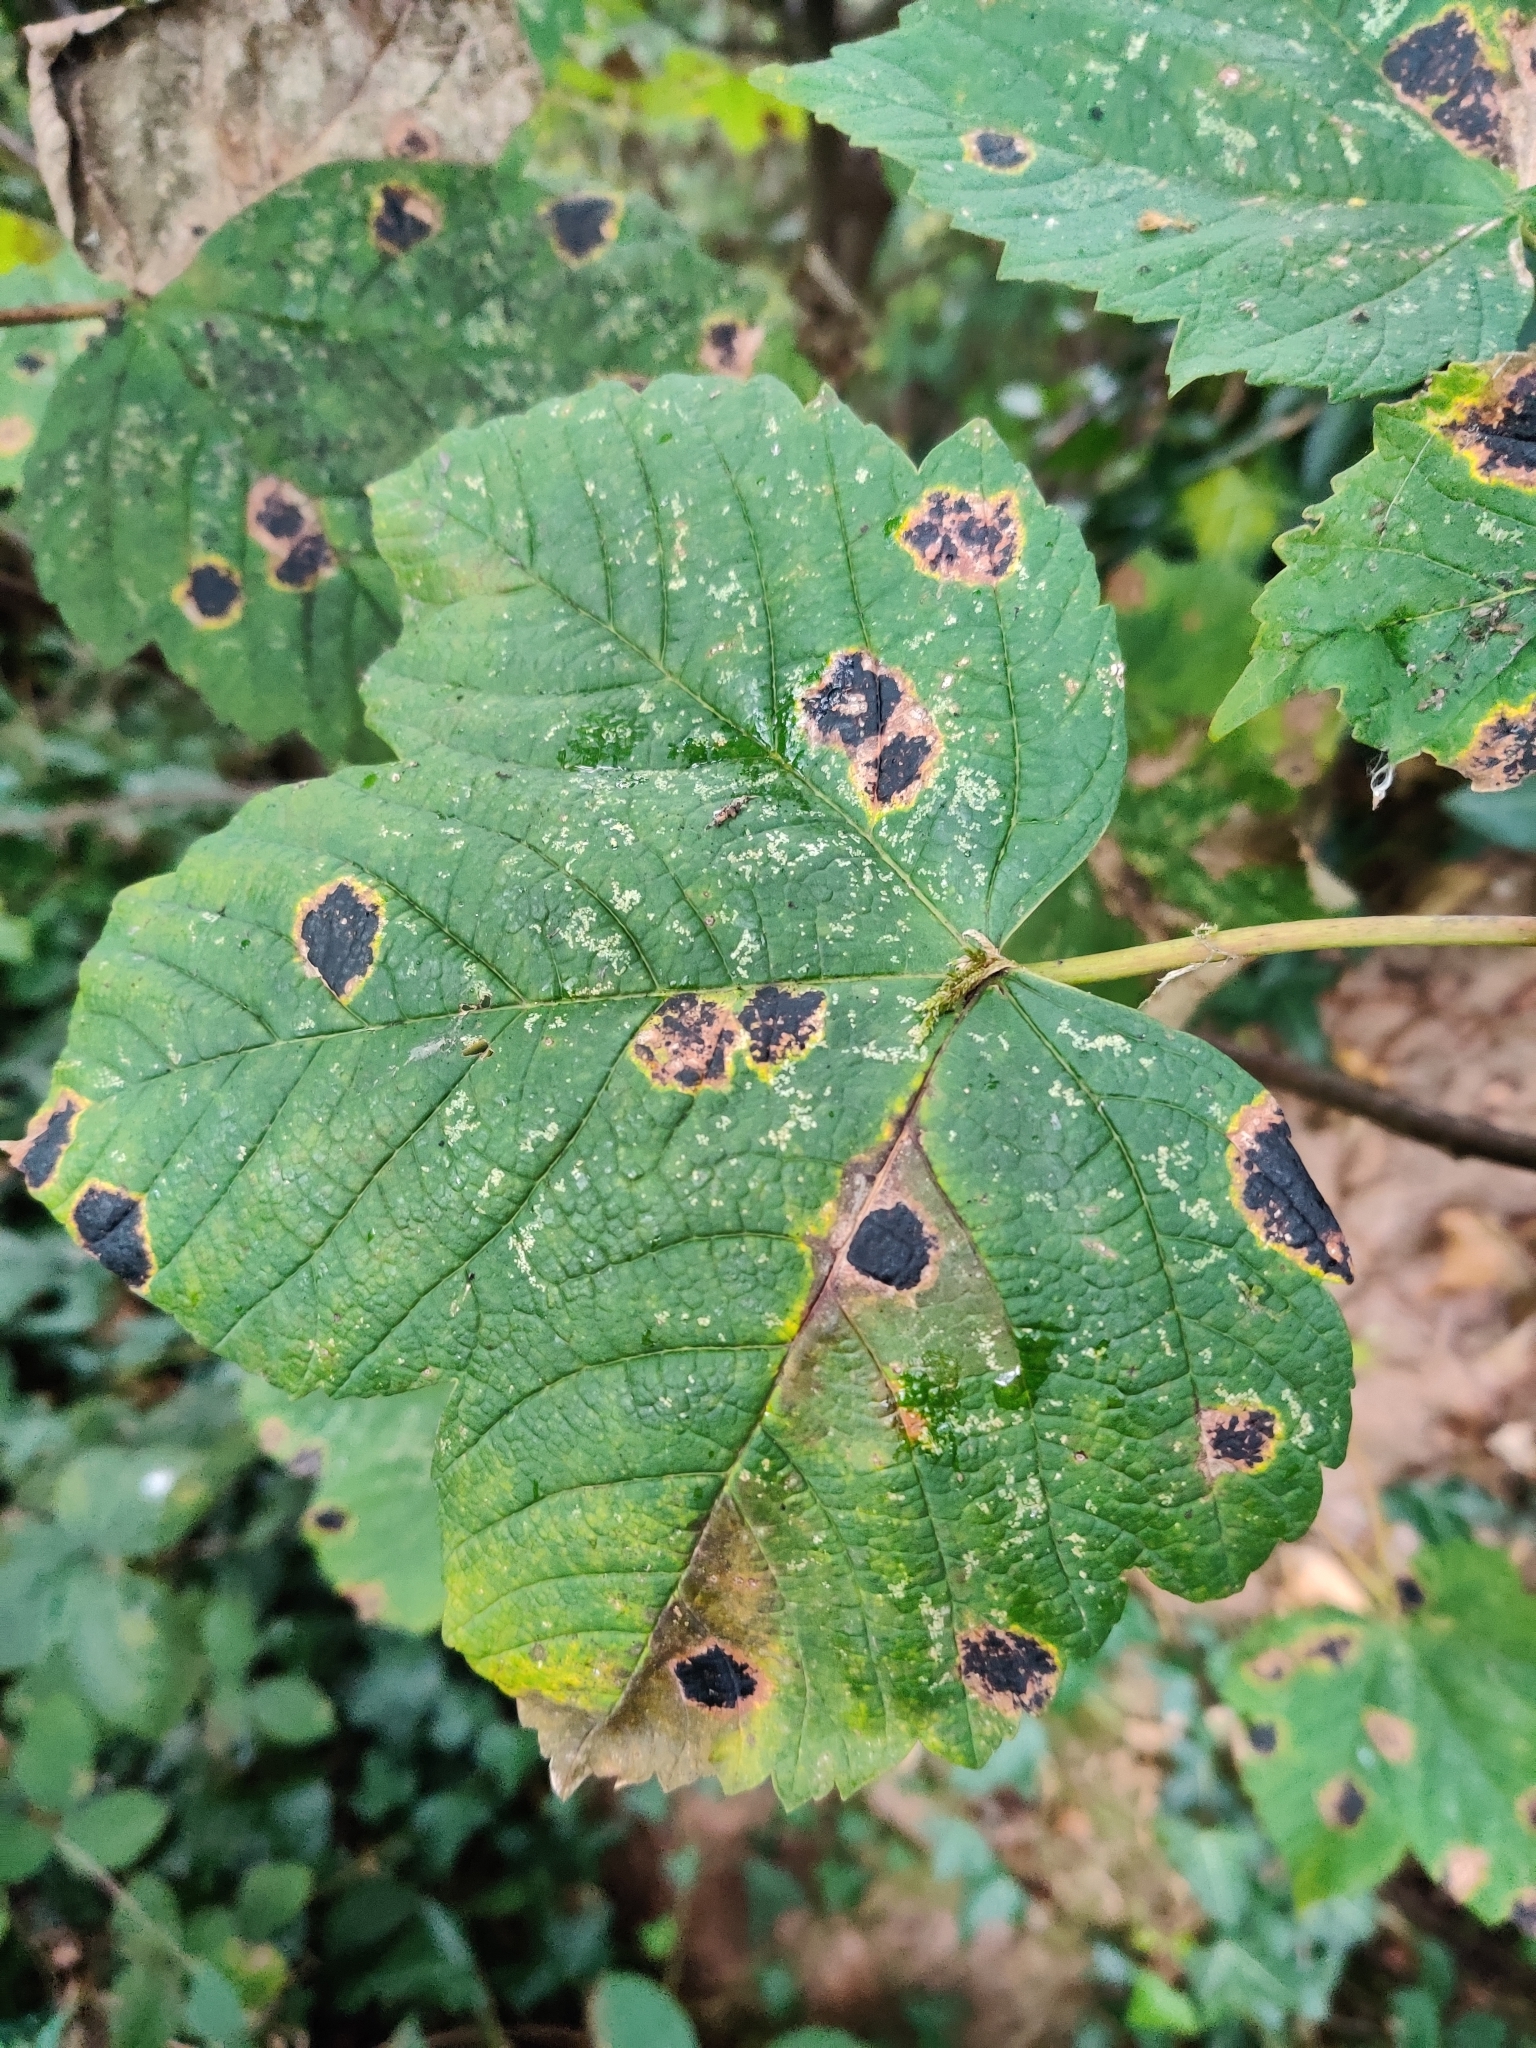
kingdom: Fungi
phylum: Ascomycota
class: Leotiomycetes
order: Rhytismatales
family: Rhytismataceae
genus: Rhytisma
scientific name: Rhytisma acerinum
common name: European tar spot
